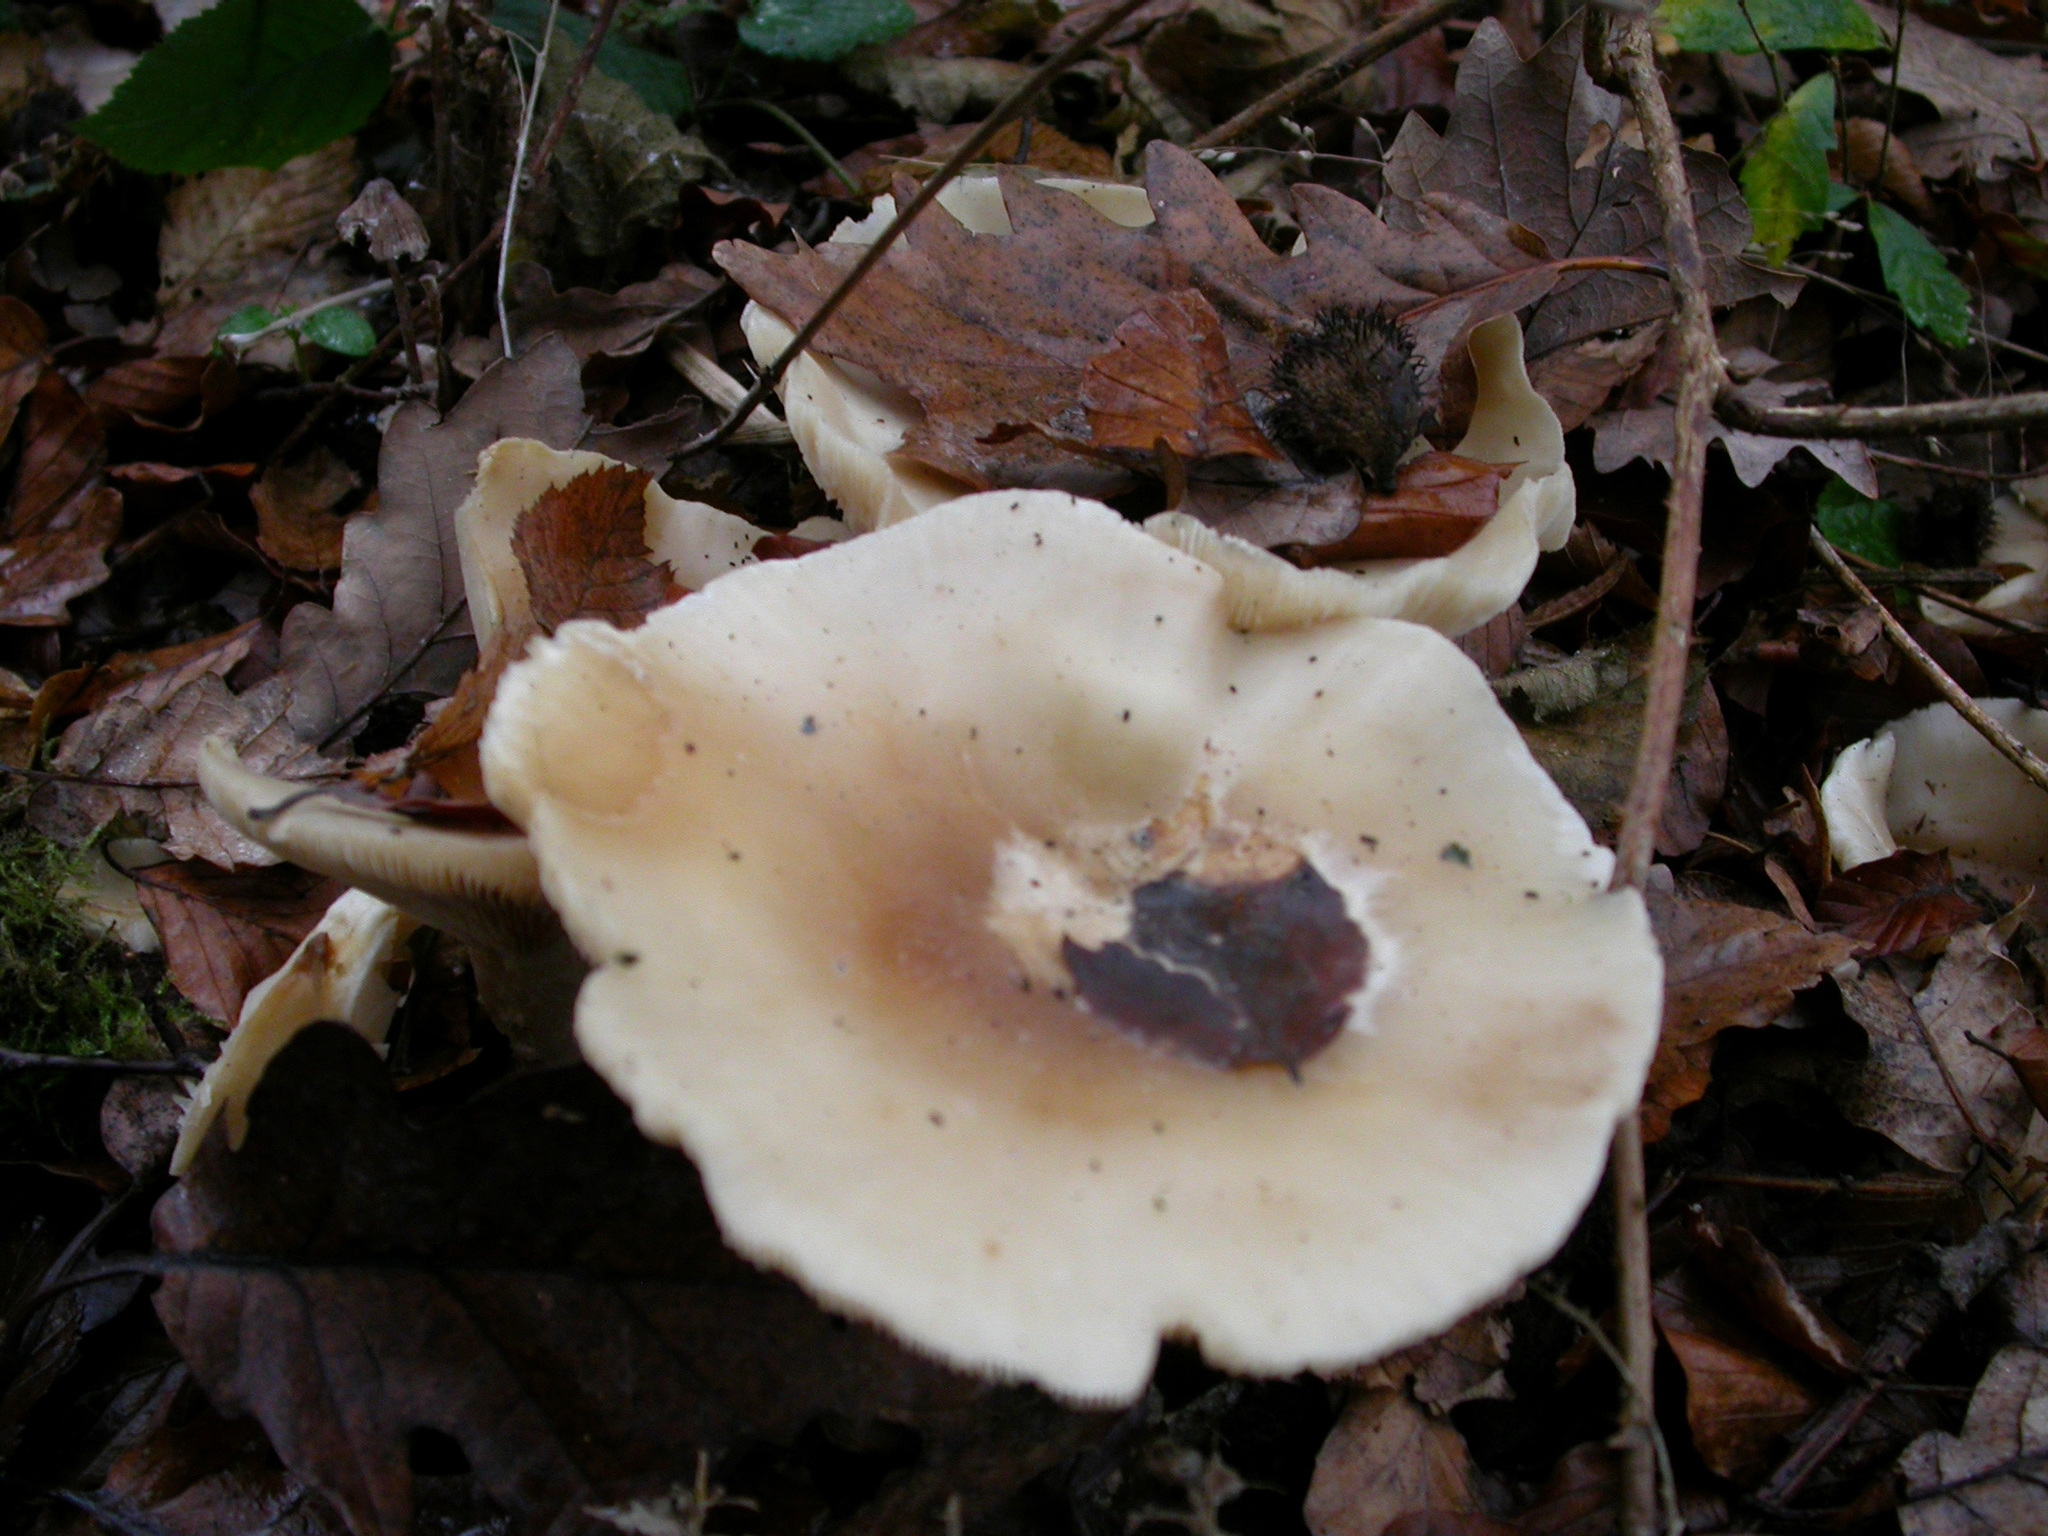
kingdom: Fungi
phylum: Basidiomycota
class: Agaricomycetes
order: Agaricales
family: Tricholomataceae
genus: Clitocybe
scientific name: Clitocybe nebularis
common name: Clouded agaric
